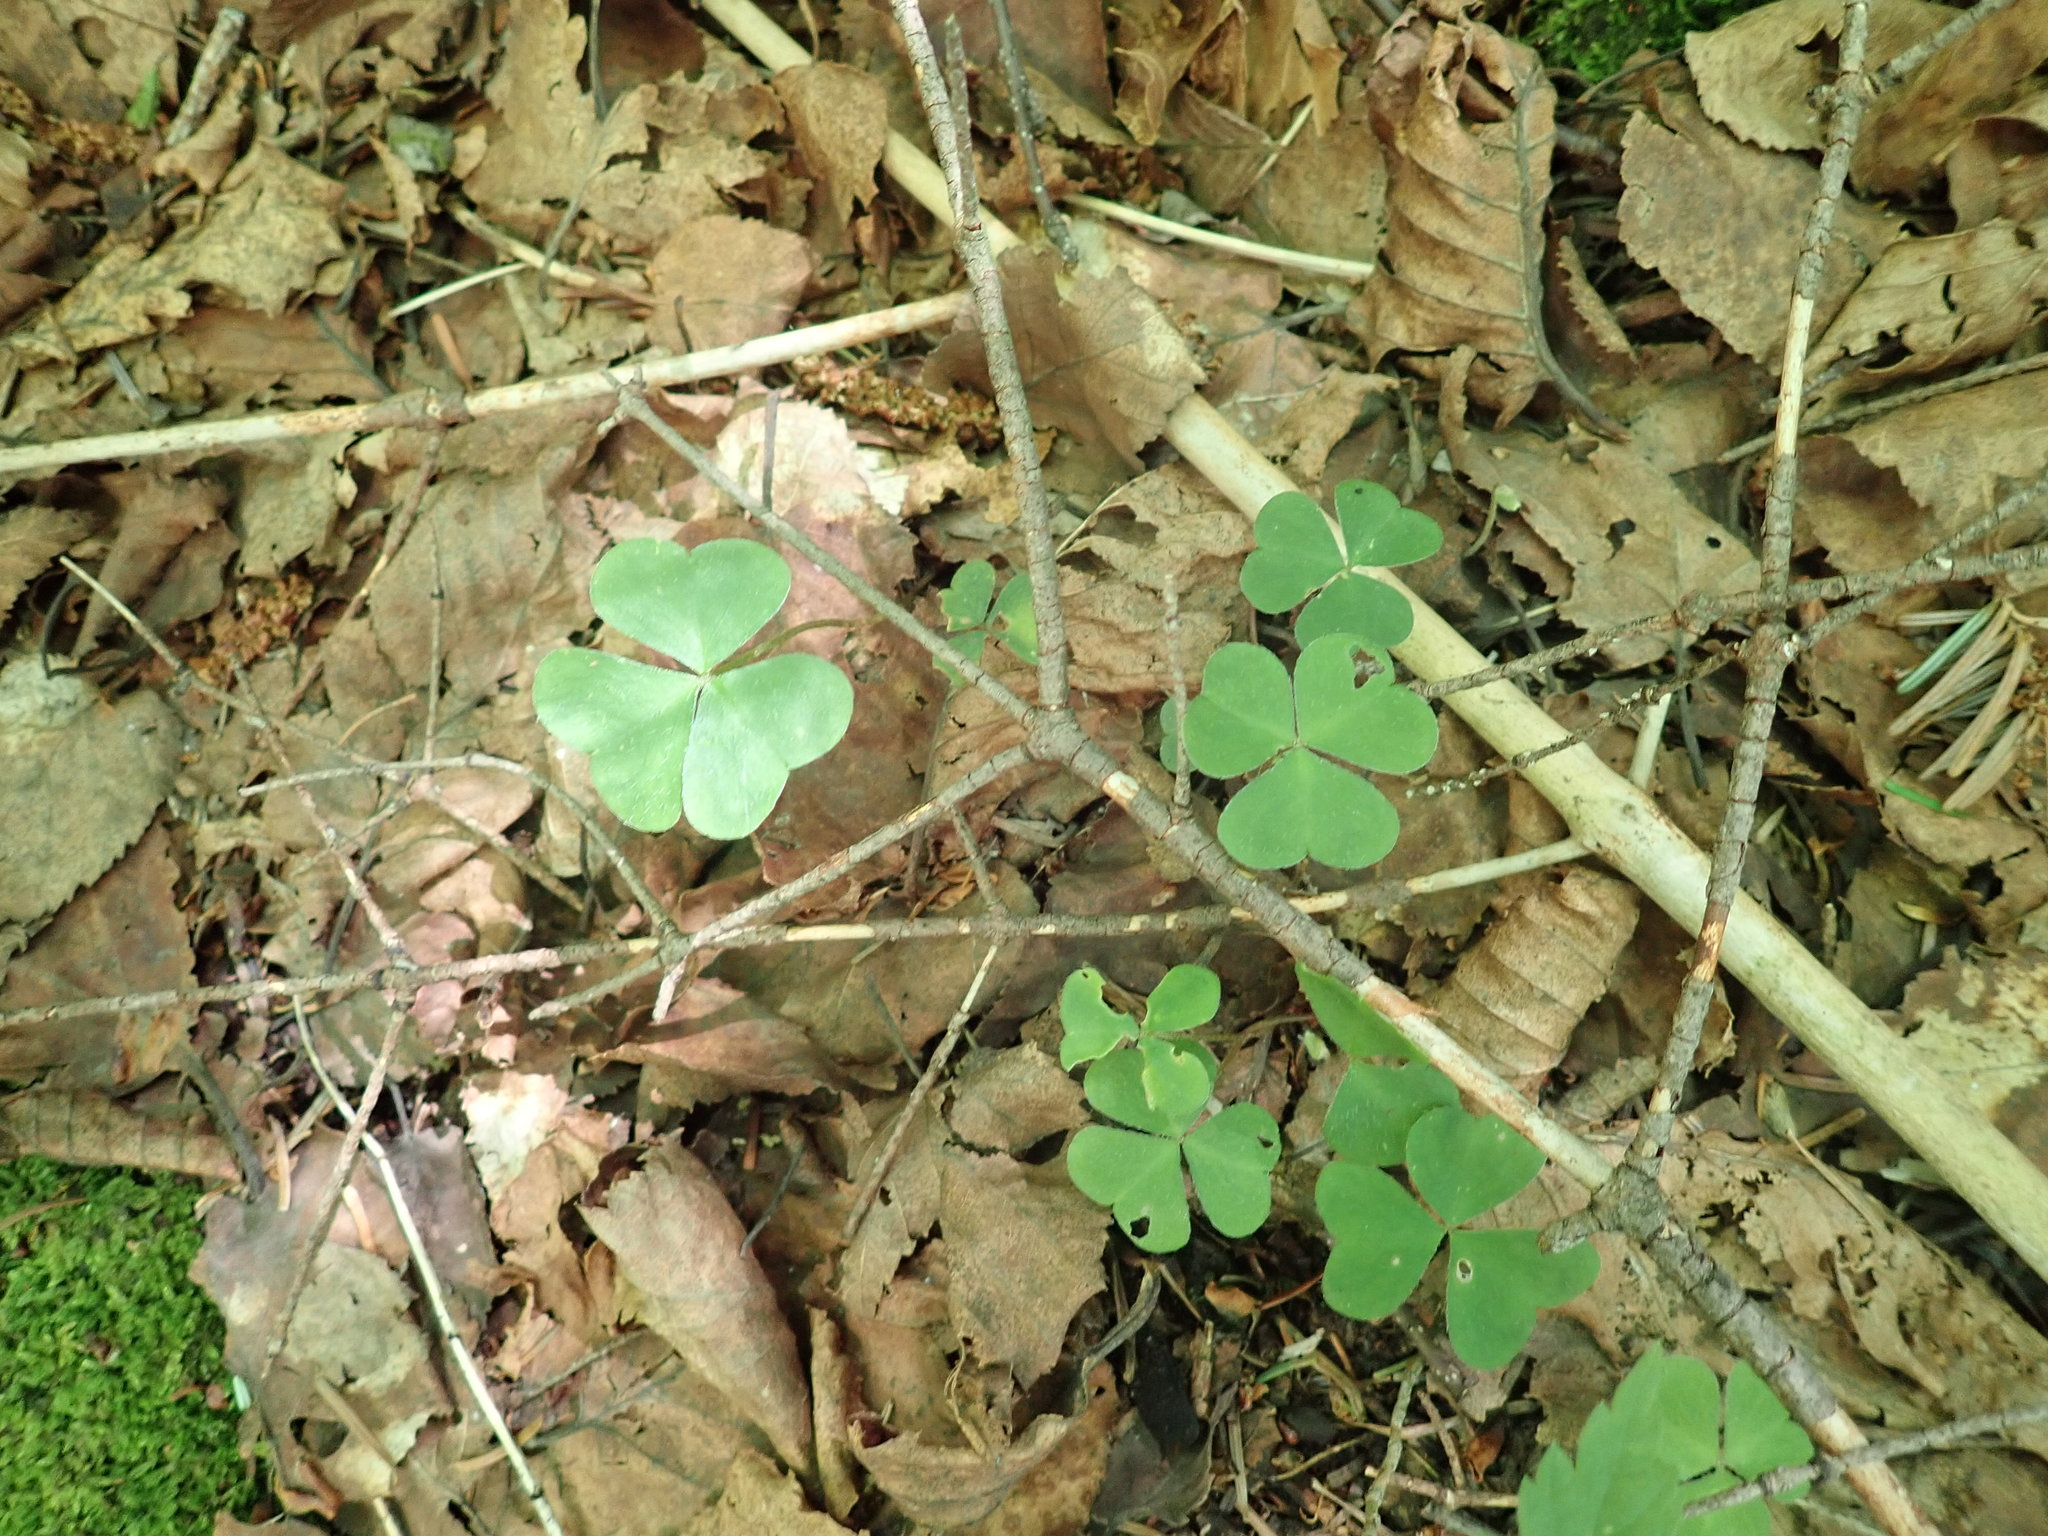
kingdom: Plantae
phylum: Tracheophyta
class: Magnoliopsida
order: Oxalidales
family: Oxalidaceae
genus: Oxalis
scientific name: Oxalis montana
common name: American wood-sorrel
